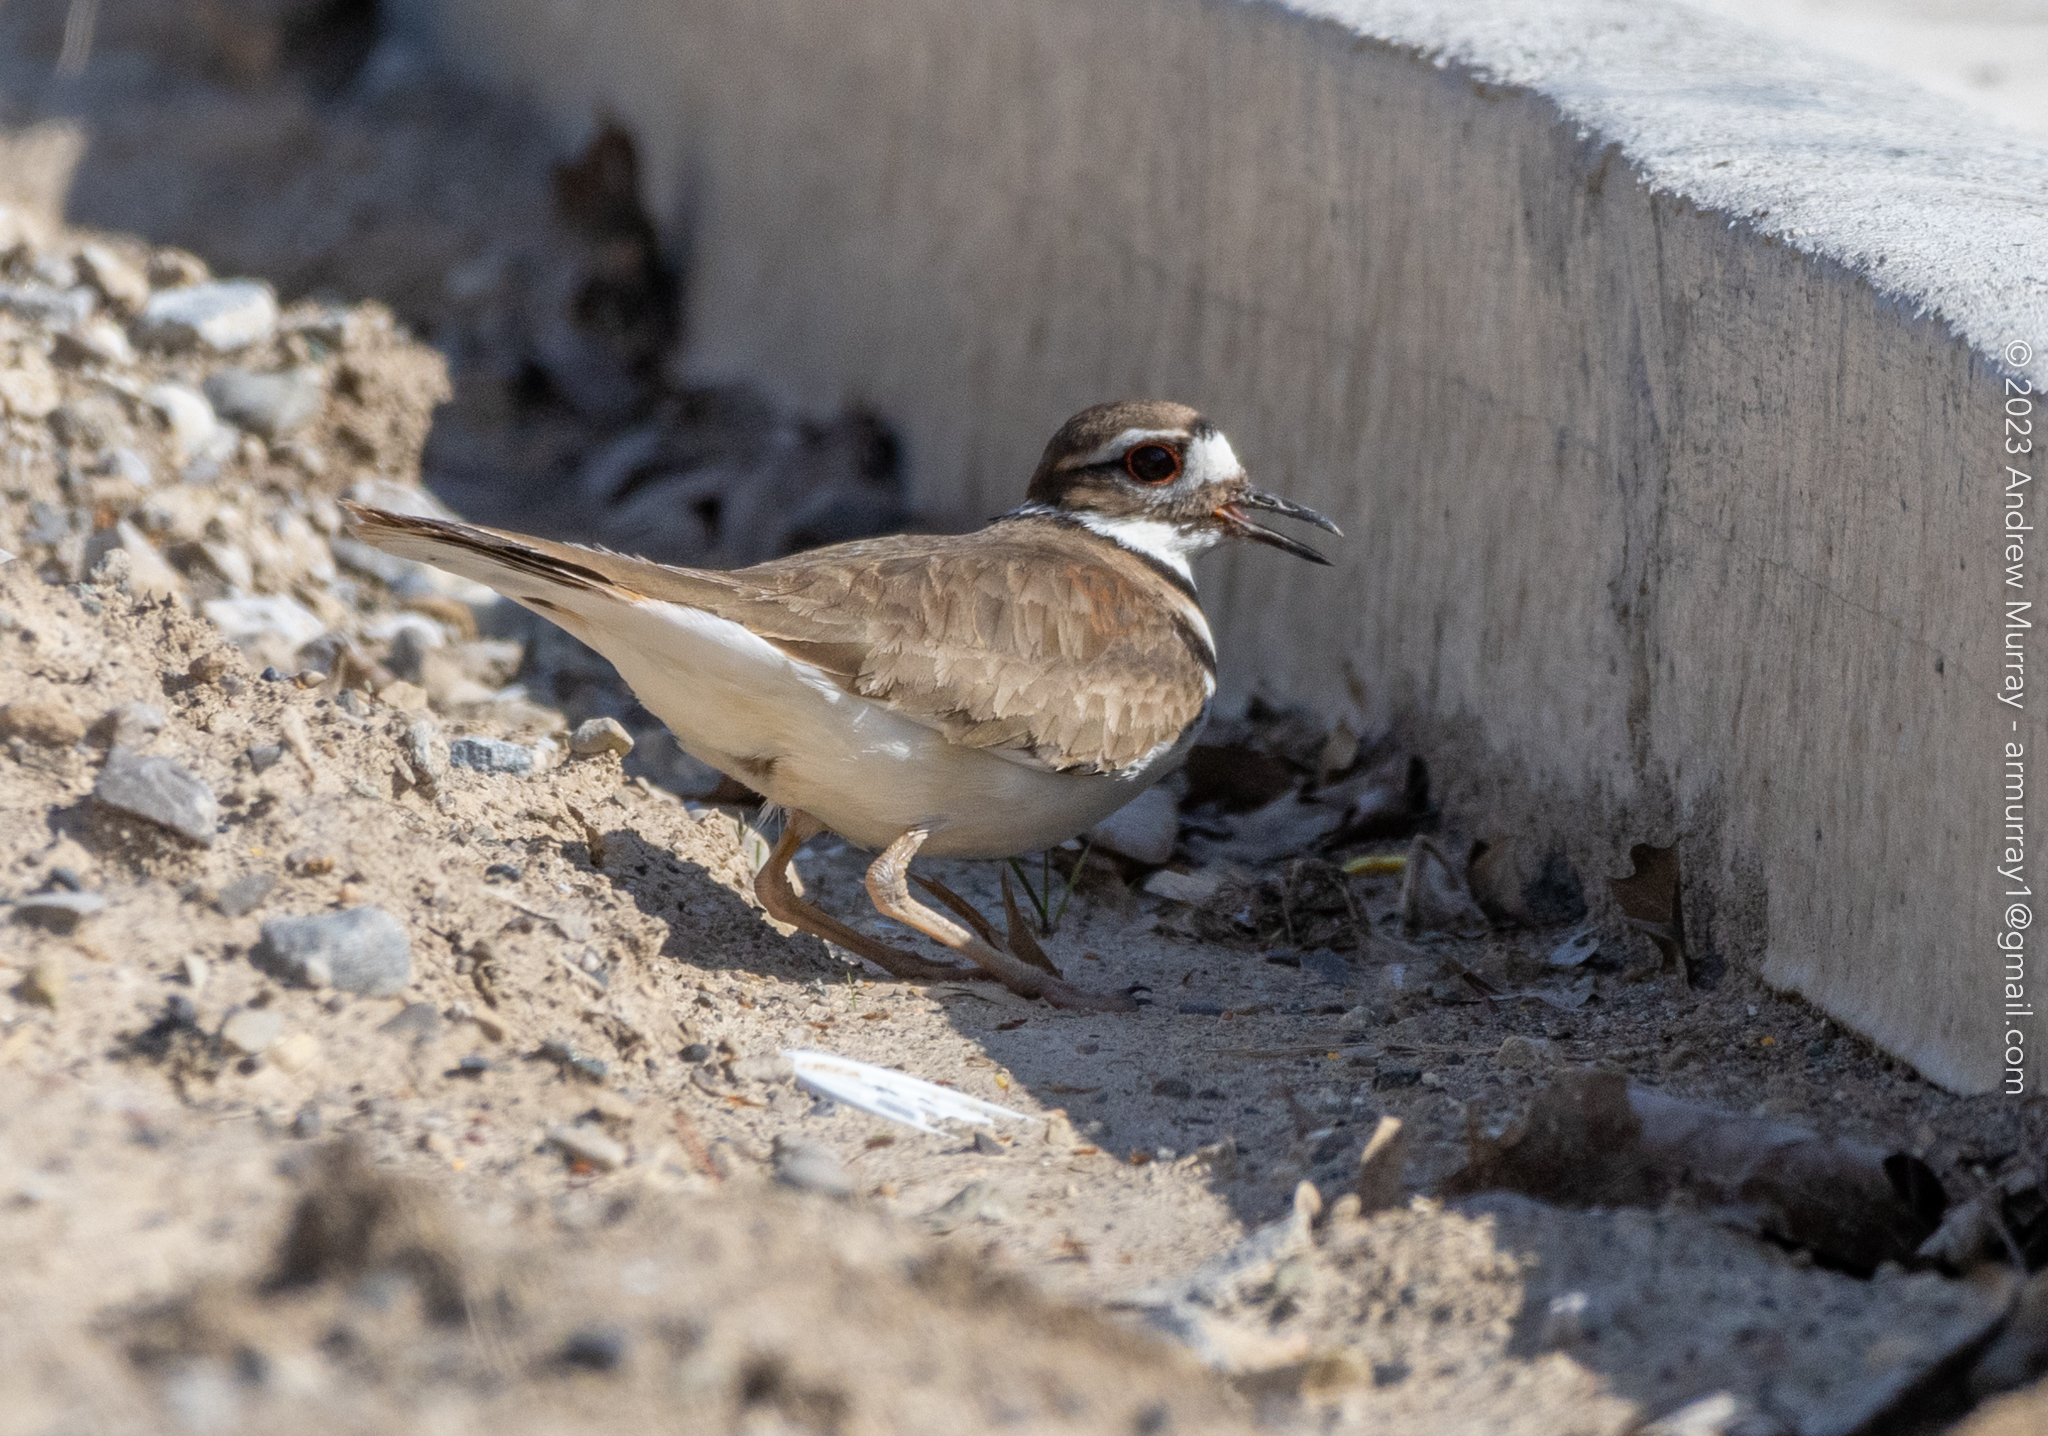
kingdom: Animalia
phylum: Chordata
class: Aves
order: Charadriiformes
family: Charadriidae
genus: Charadrius
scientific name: Charadrius vociferus
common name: Killdeer
